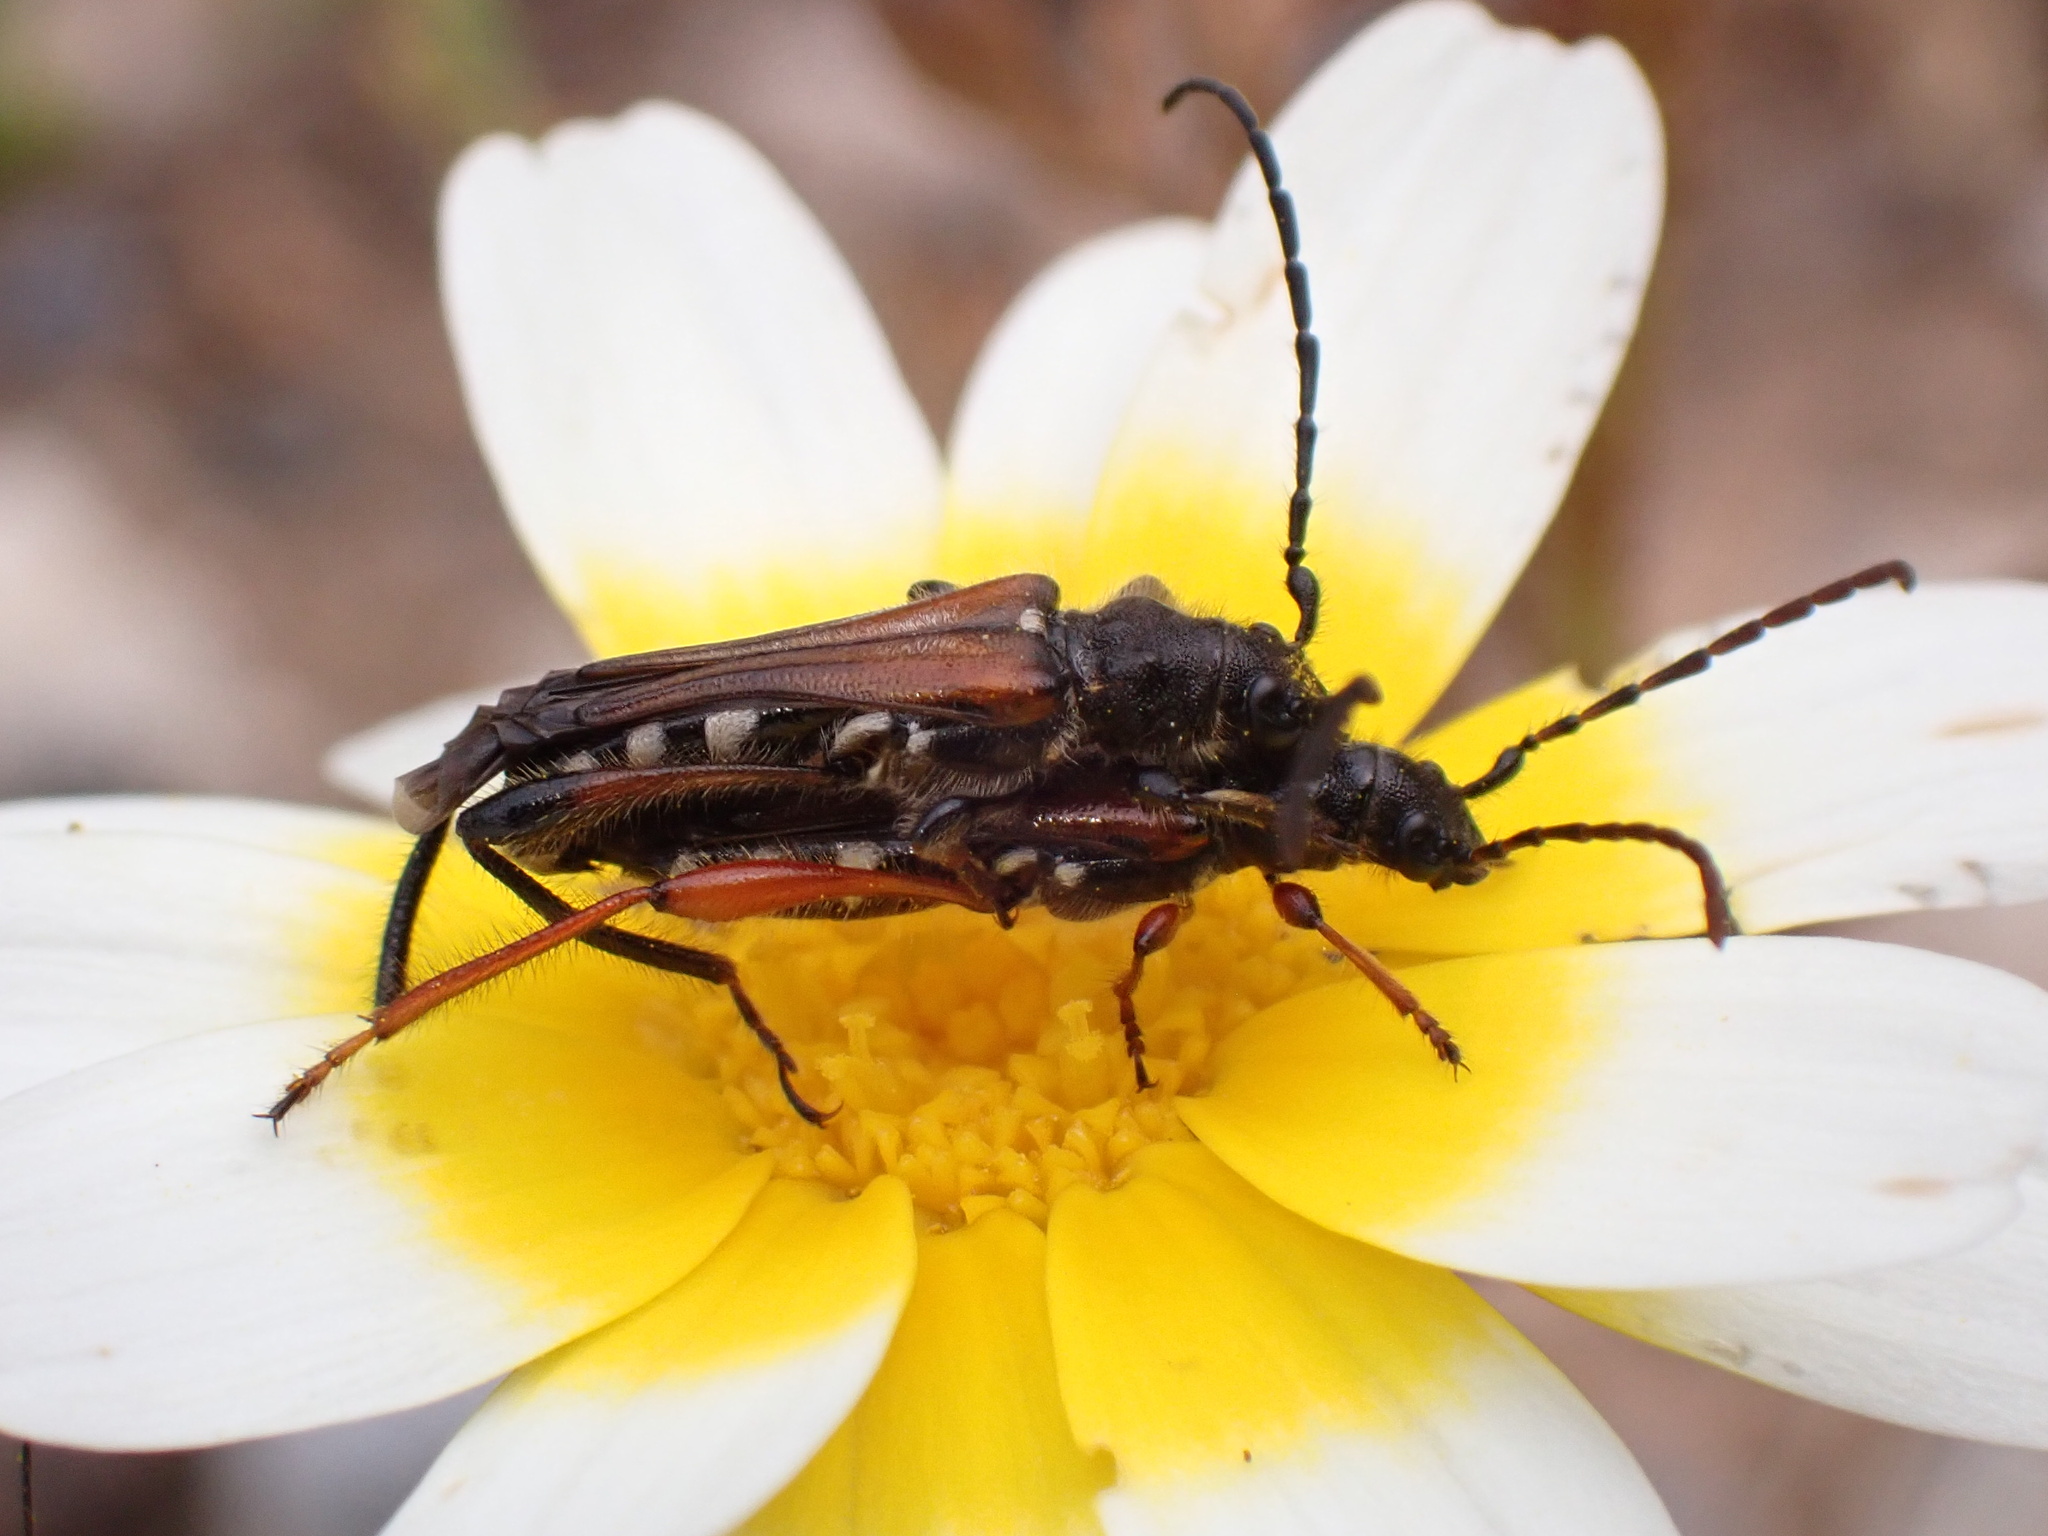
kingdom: Animalia
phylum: Arthropoda
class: Insecta
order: Coleoptera
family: Cerambycidae
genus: Stenopterus
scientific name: Stenopterus creticus
